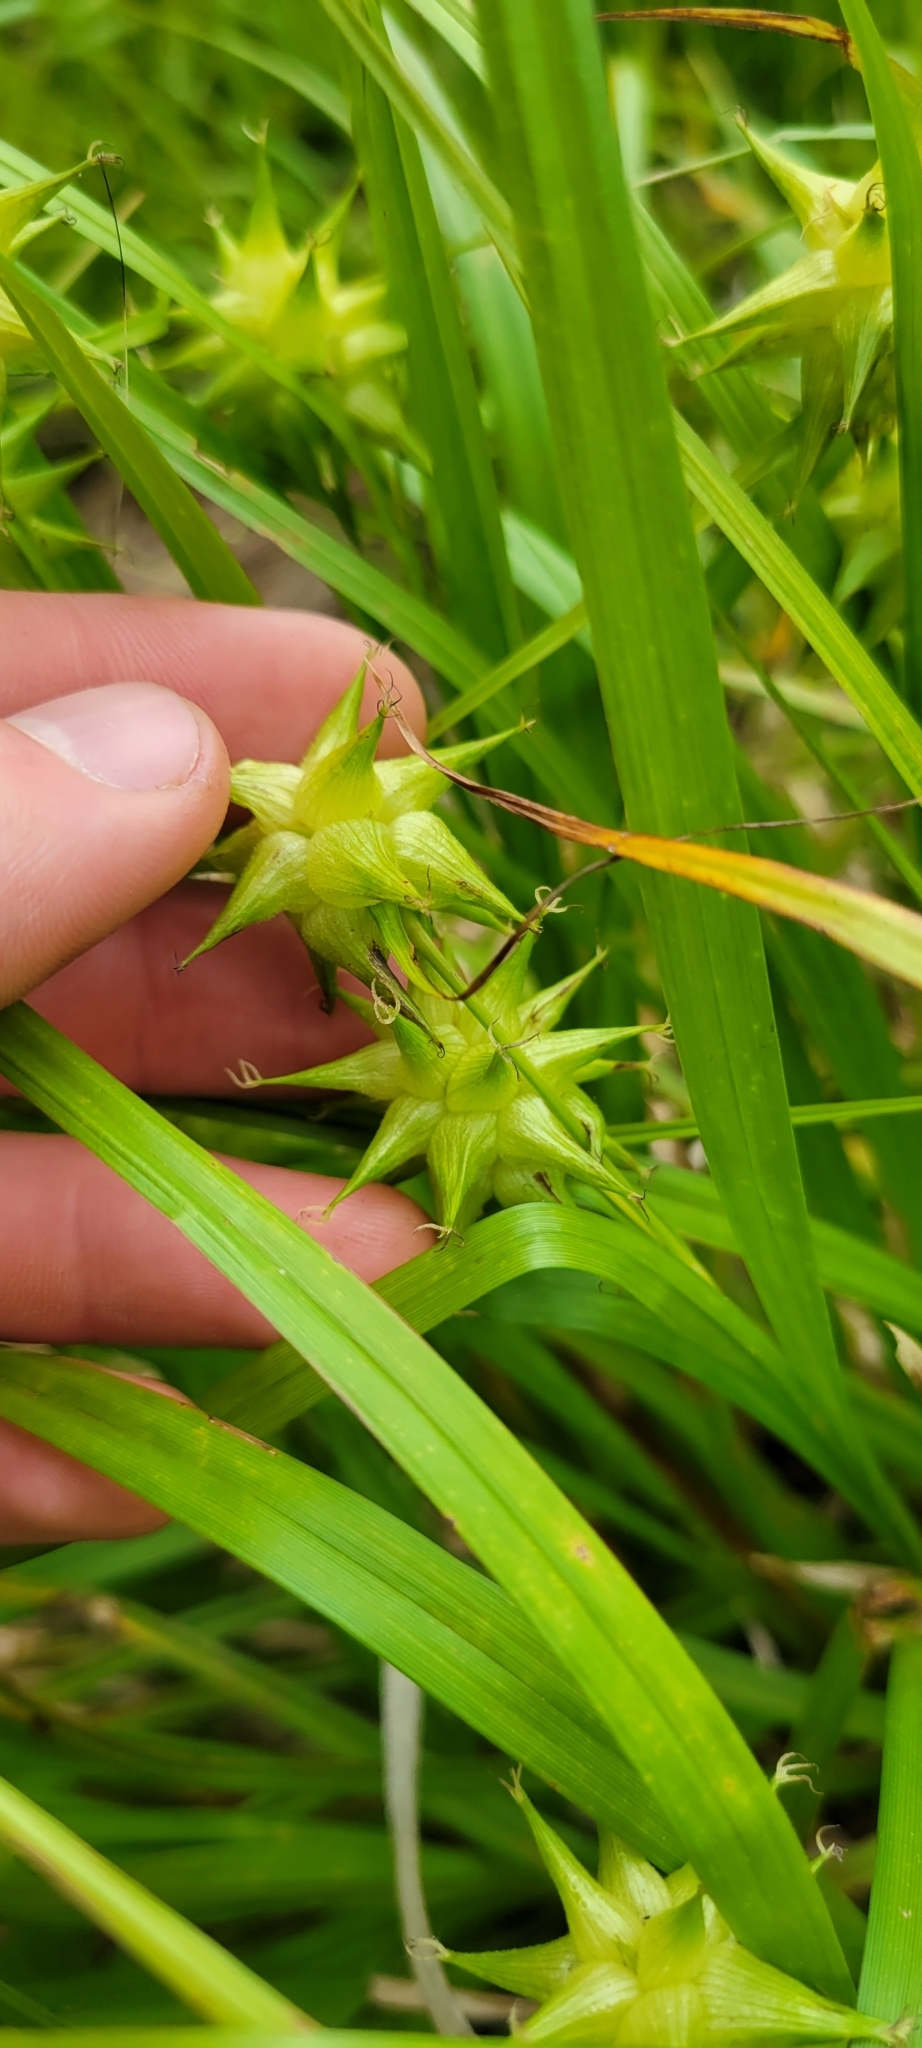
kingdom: Plantae
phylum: Tracheophyta
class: Liliopsida
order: Poales
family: Cyperaceae
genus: Carex
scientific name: Carex grayi
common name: Asa gray's sedge
